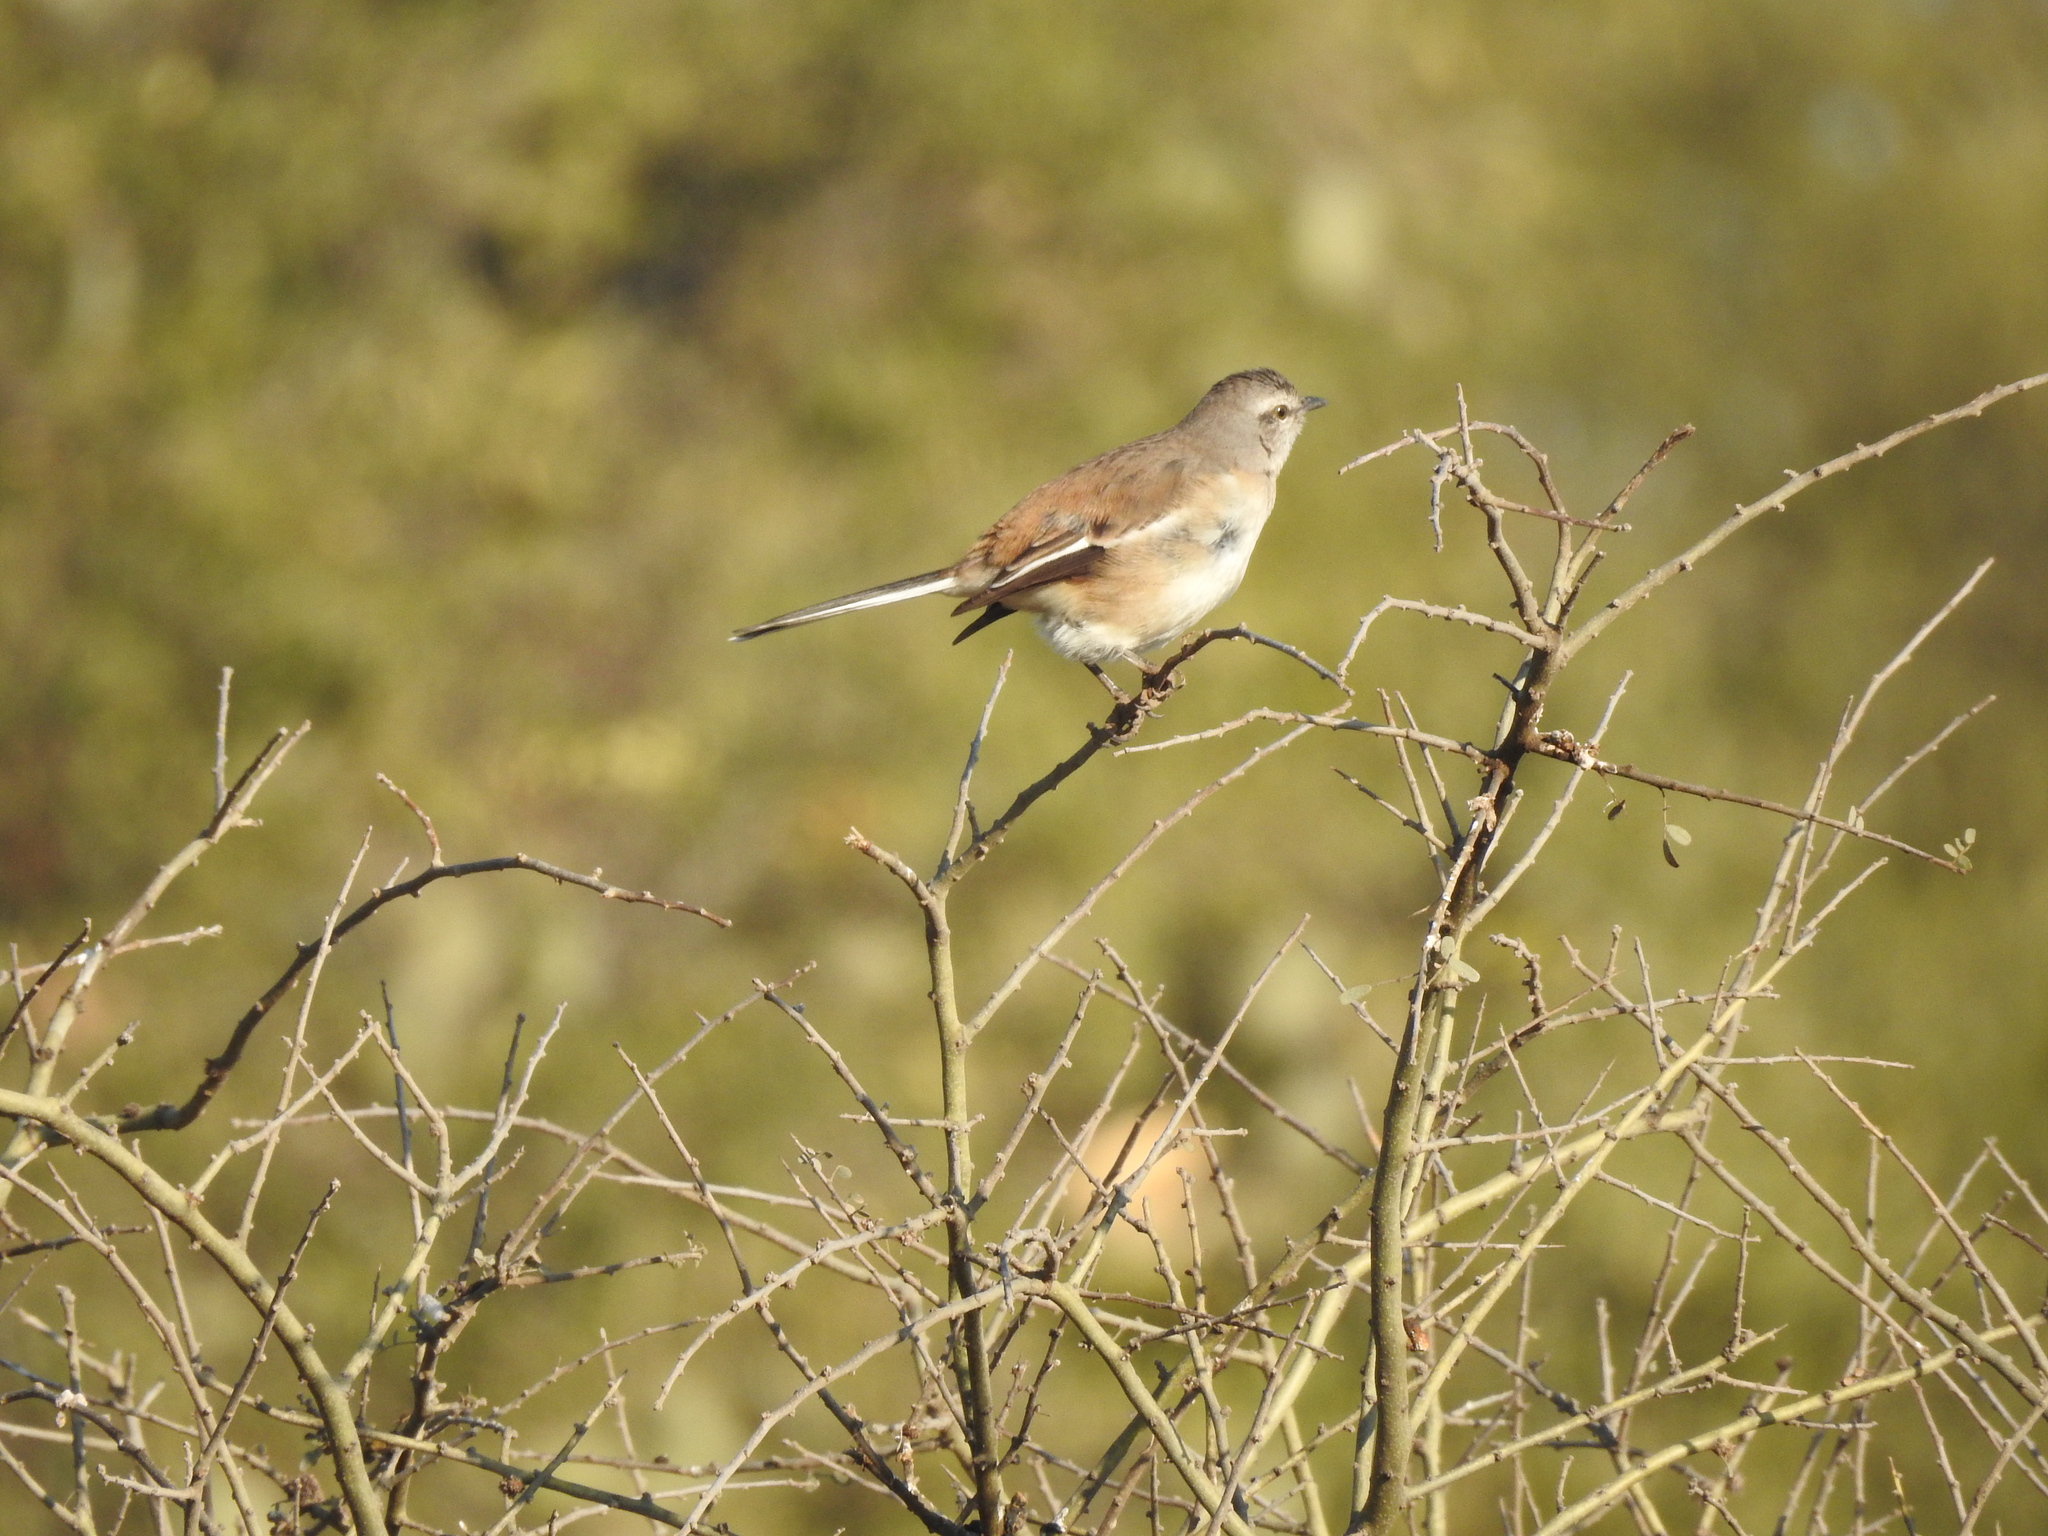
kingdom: Animalia
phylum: Chordata
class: Aves
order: Passeriformes
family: Mimidae
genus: Mimus
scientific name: Mimus triurus
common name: White-banded mockingbird
